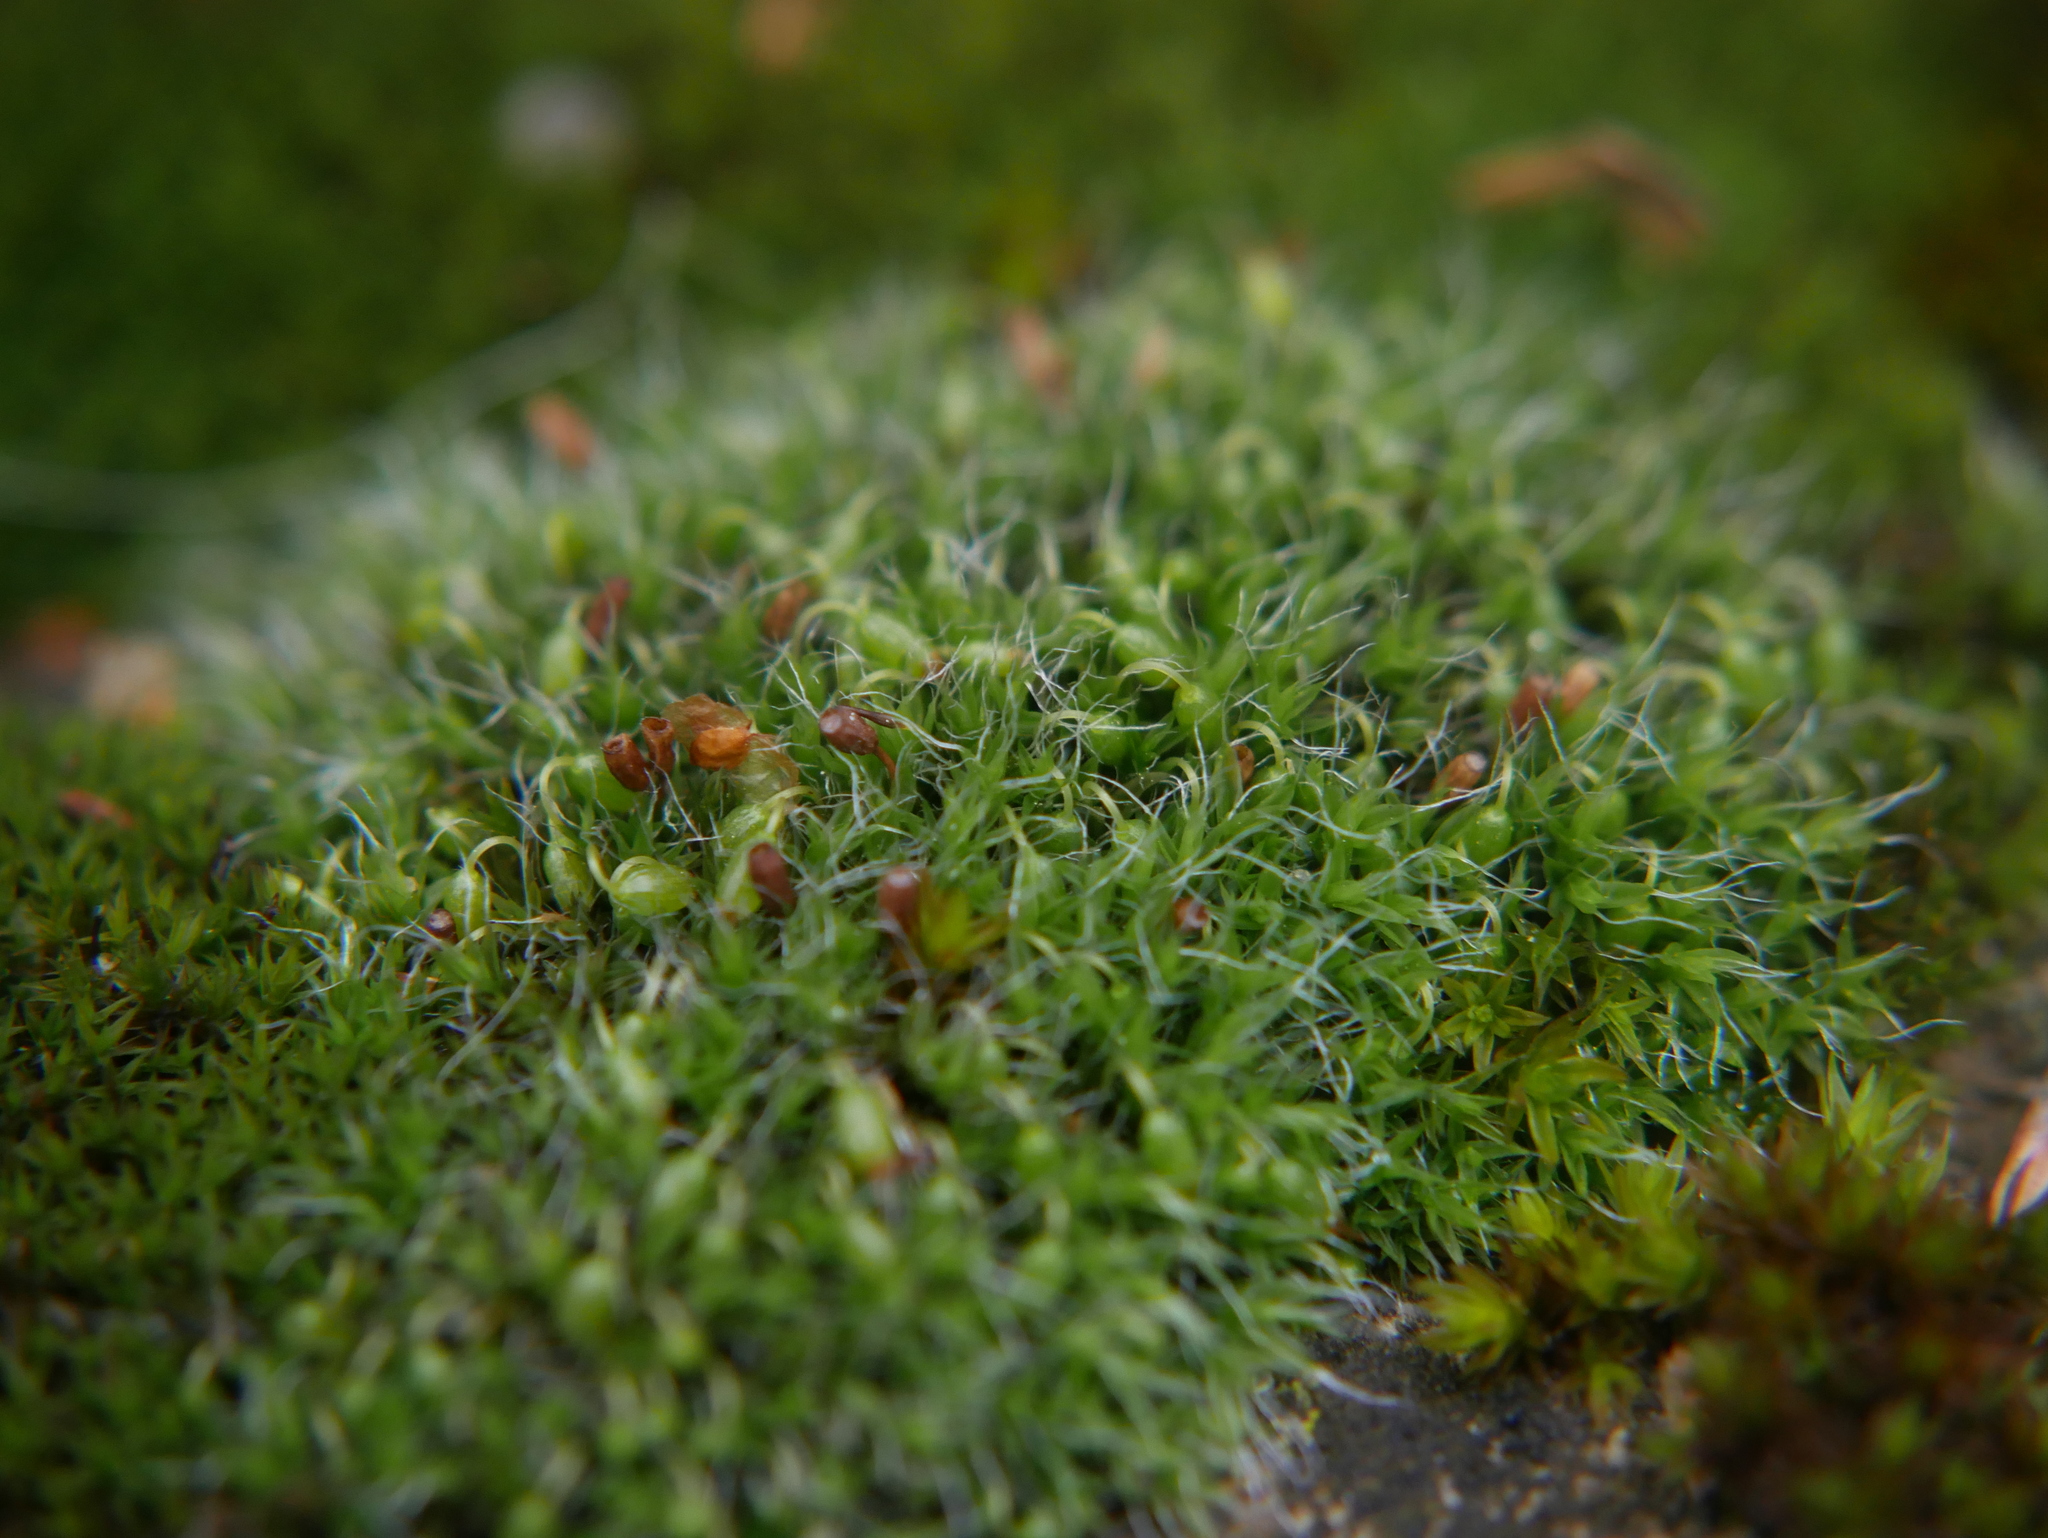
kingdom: Plantae
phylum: Bryophyta
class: Bryopsida
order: Grimmiales
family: Grimmiaceae
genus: Grimmia
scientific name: Grimmia pulvinata
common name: Grey-cushioned grimmia
